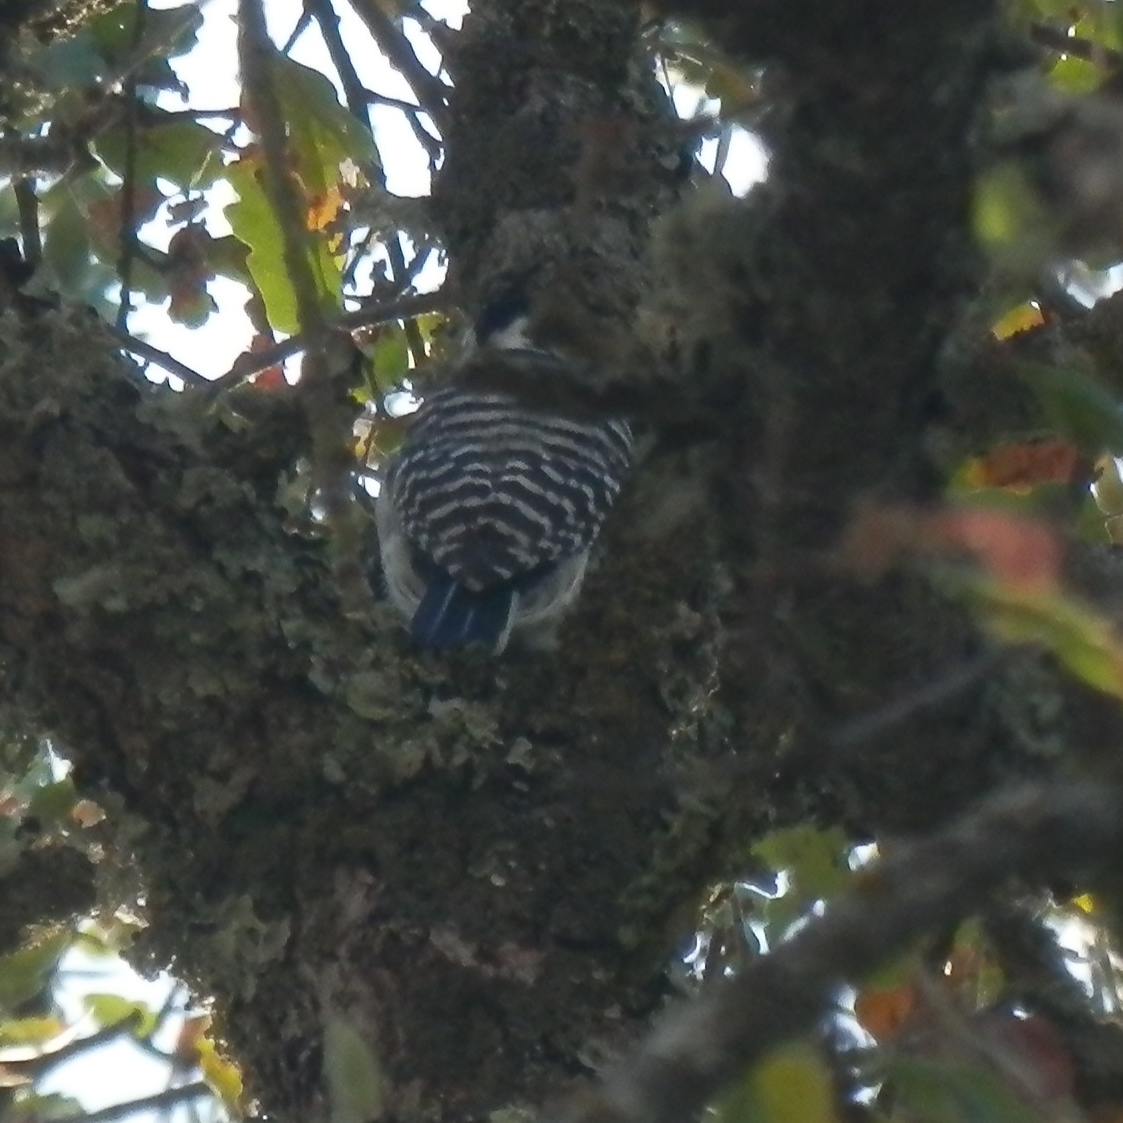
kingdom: Animalia
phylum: Chordata
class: Aves
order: Piciformes
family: Picidae
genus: Dryobates
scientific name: Dryobates nuttallii
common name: Nuttall's woodpecker
